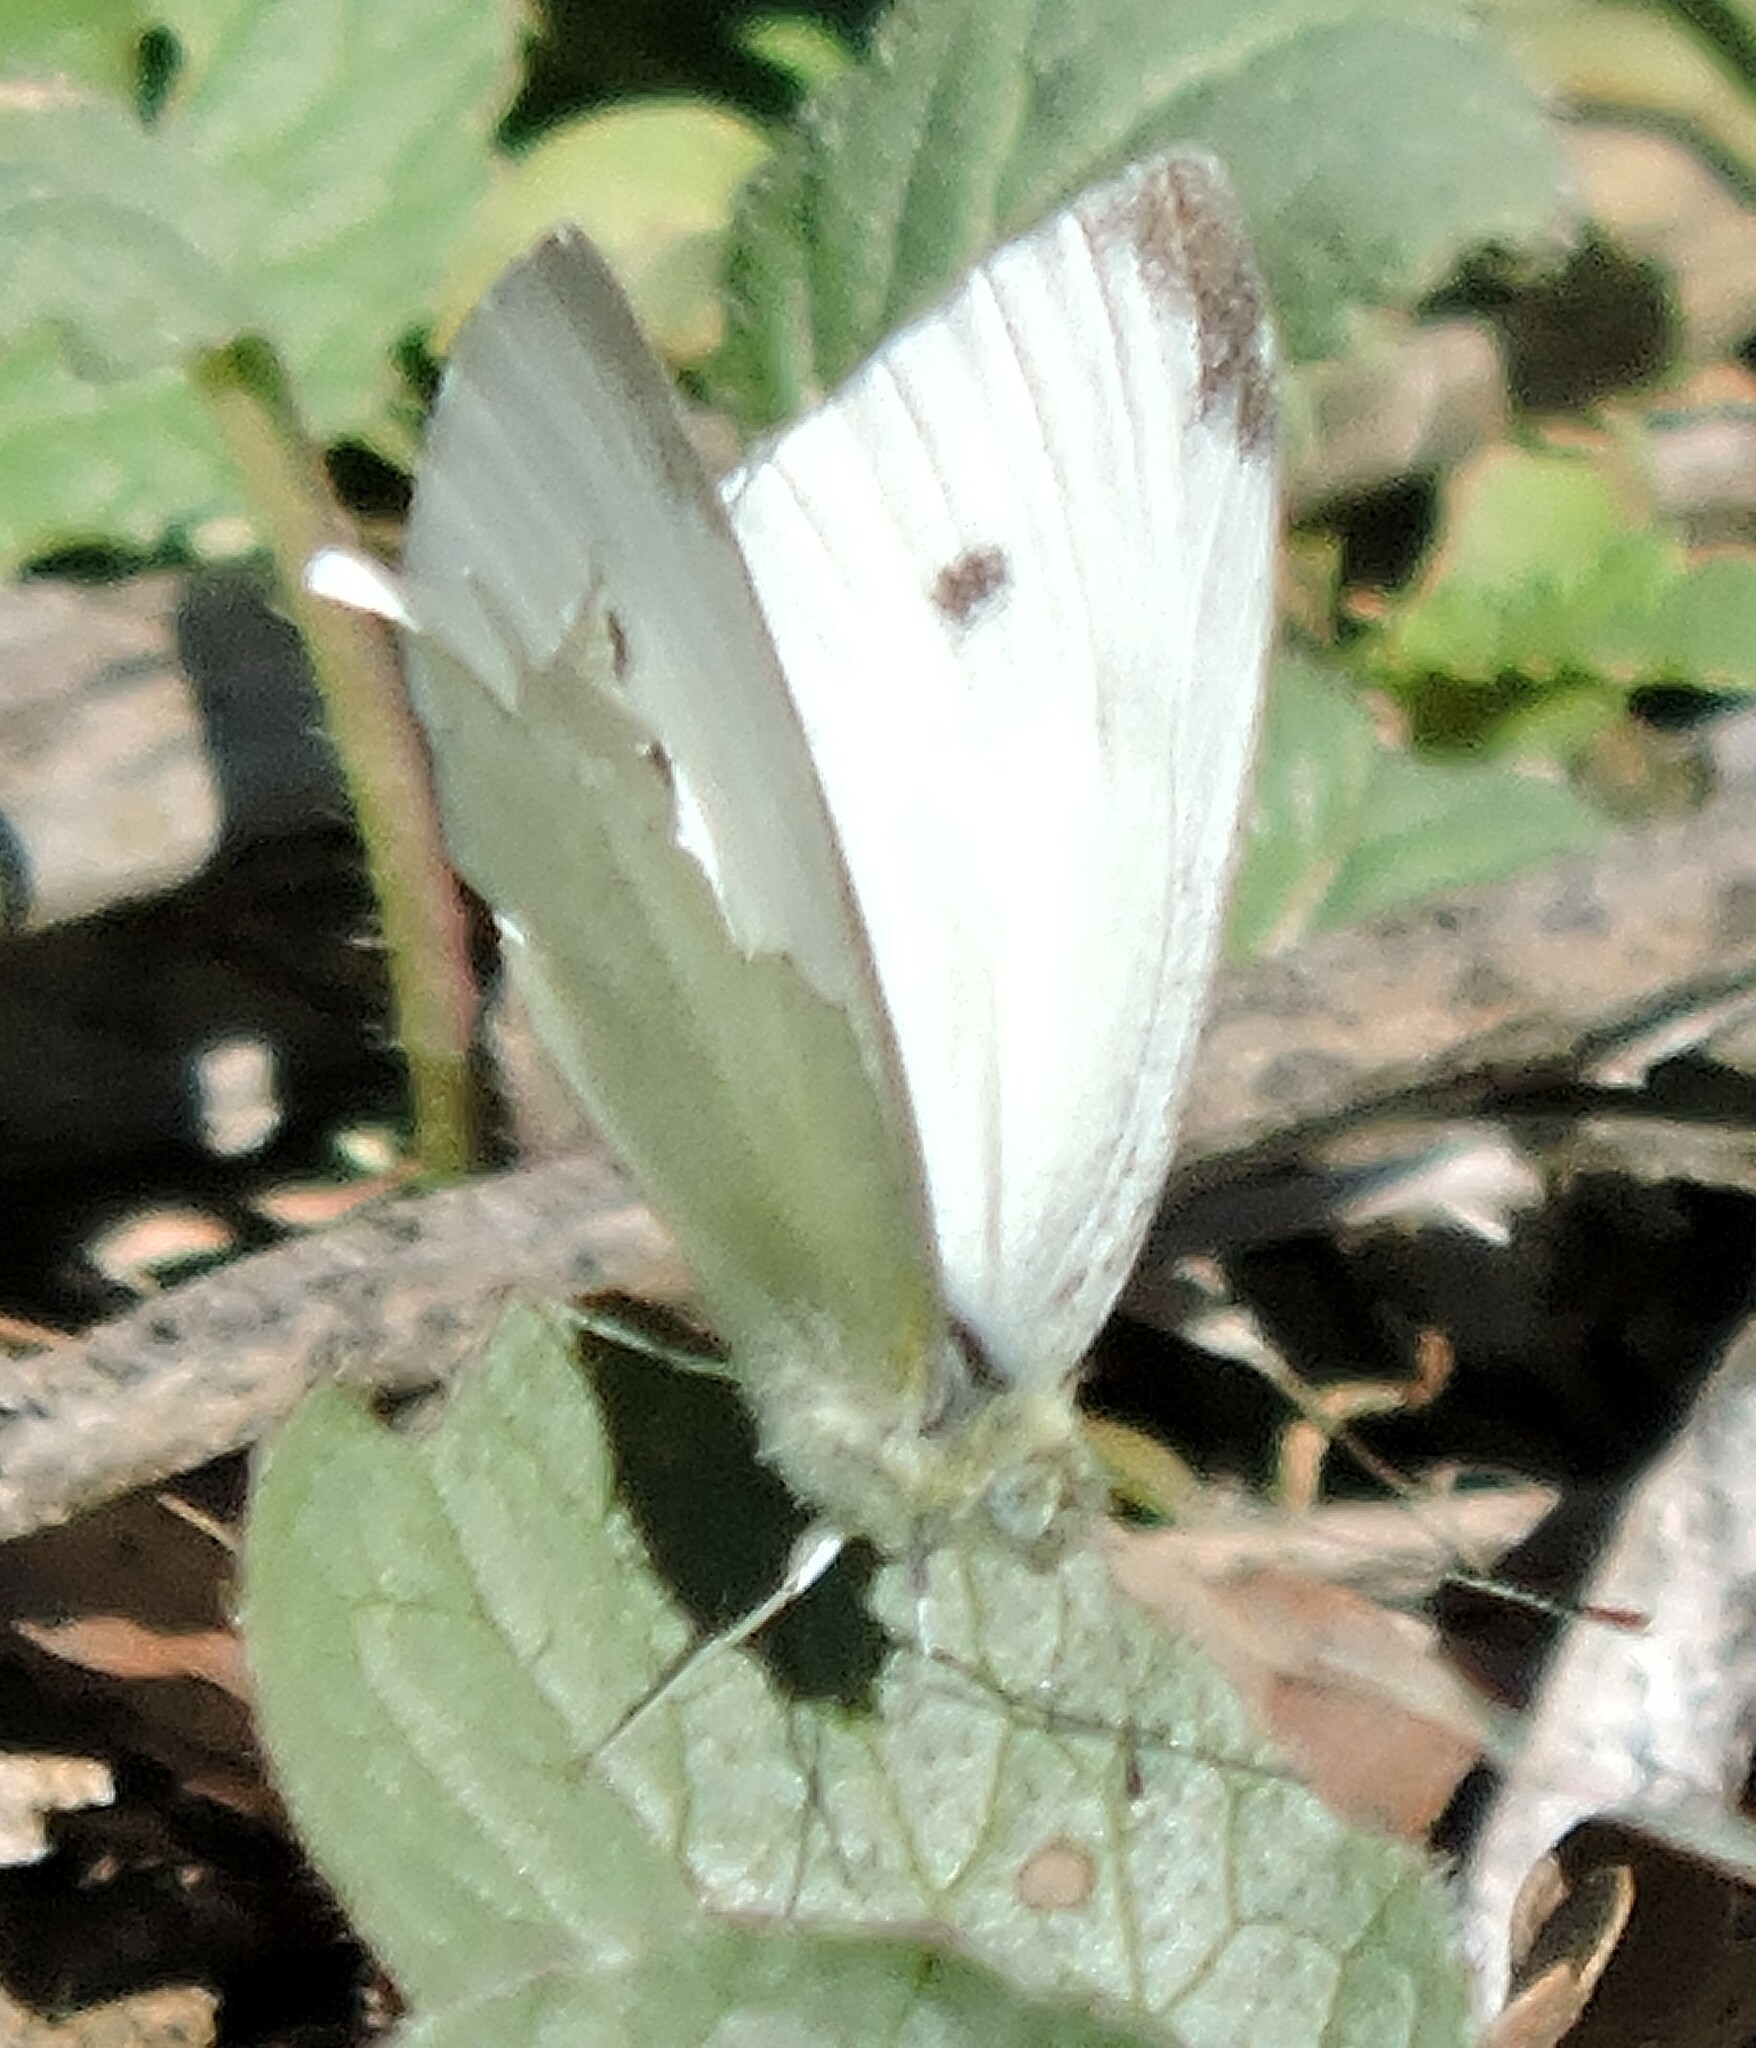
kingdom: Animalia
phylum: Arthropoda
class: Insecta
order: Lepidoptera
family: Pieridae
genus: Pieris
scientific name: Pieris rapae
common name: Small white
